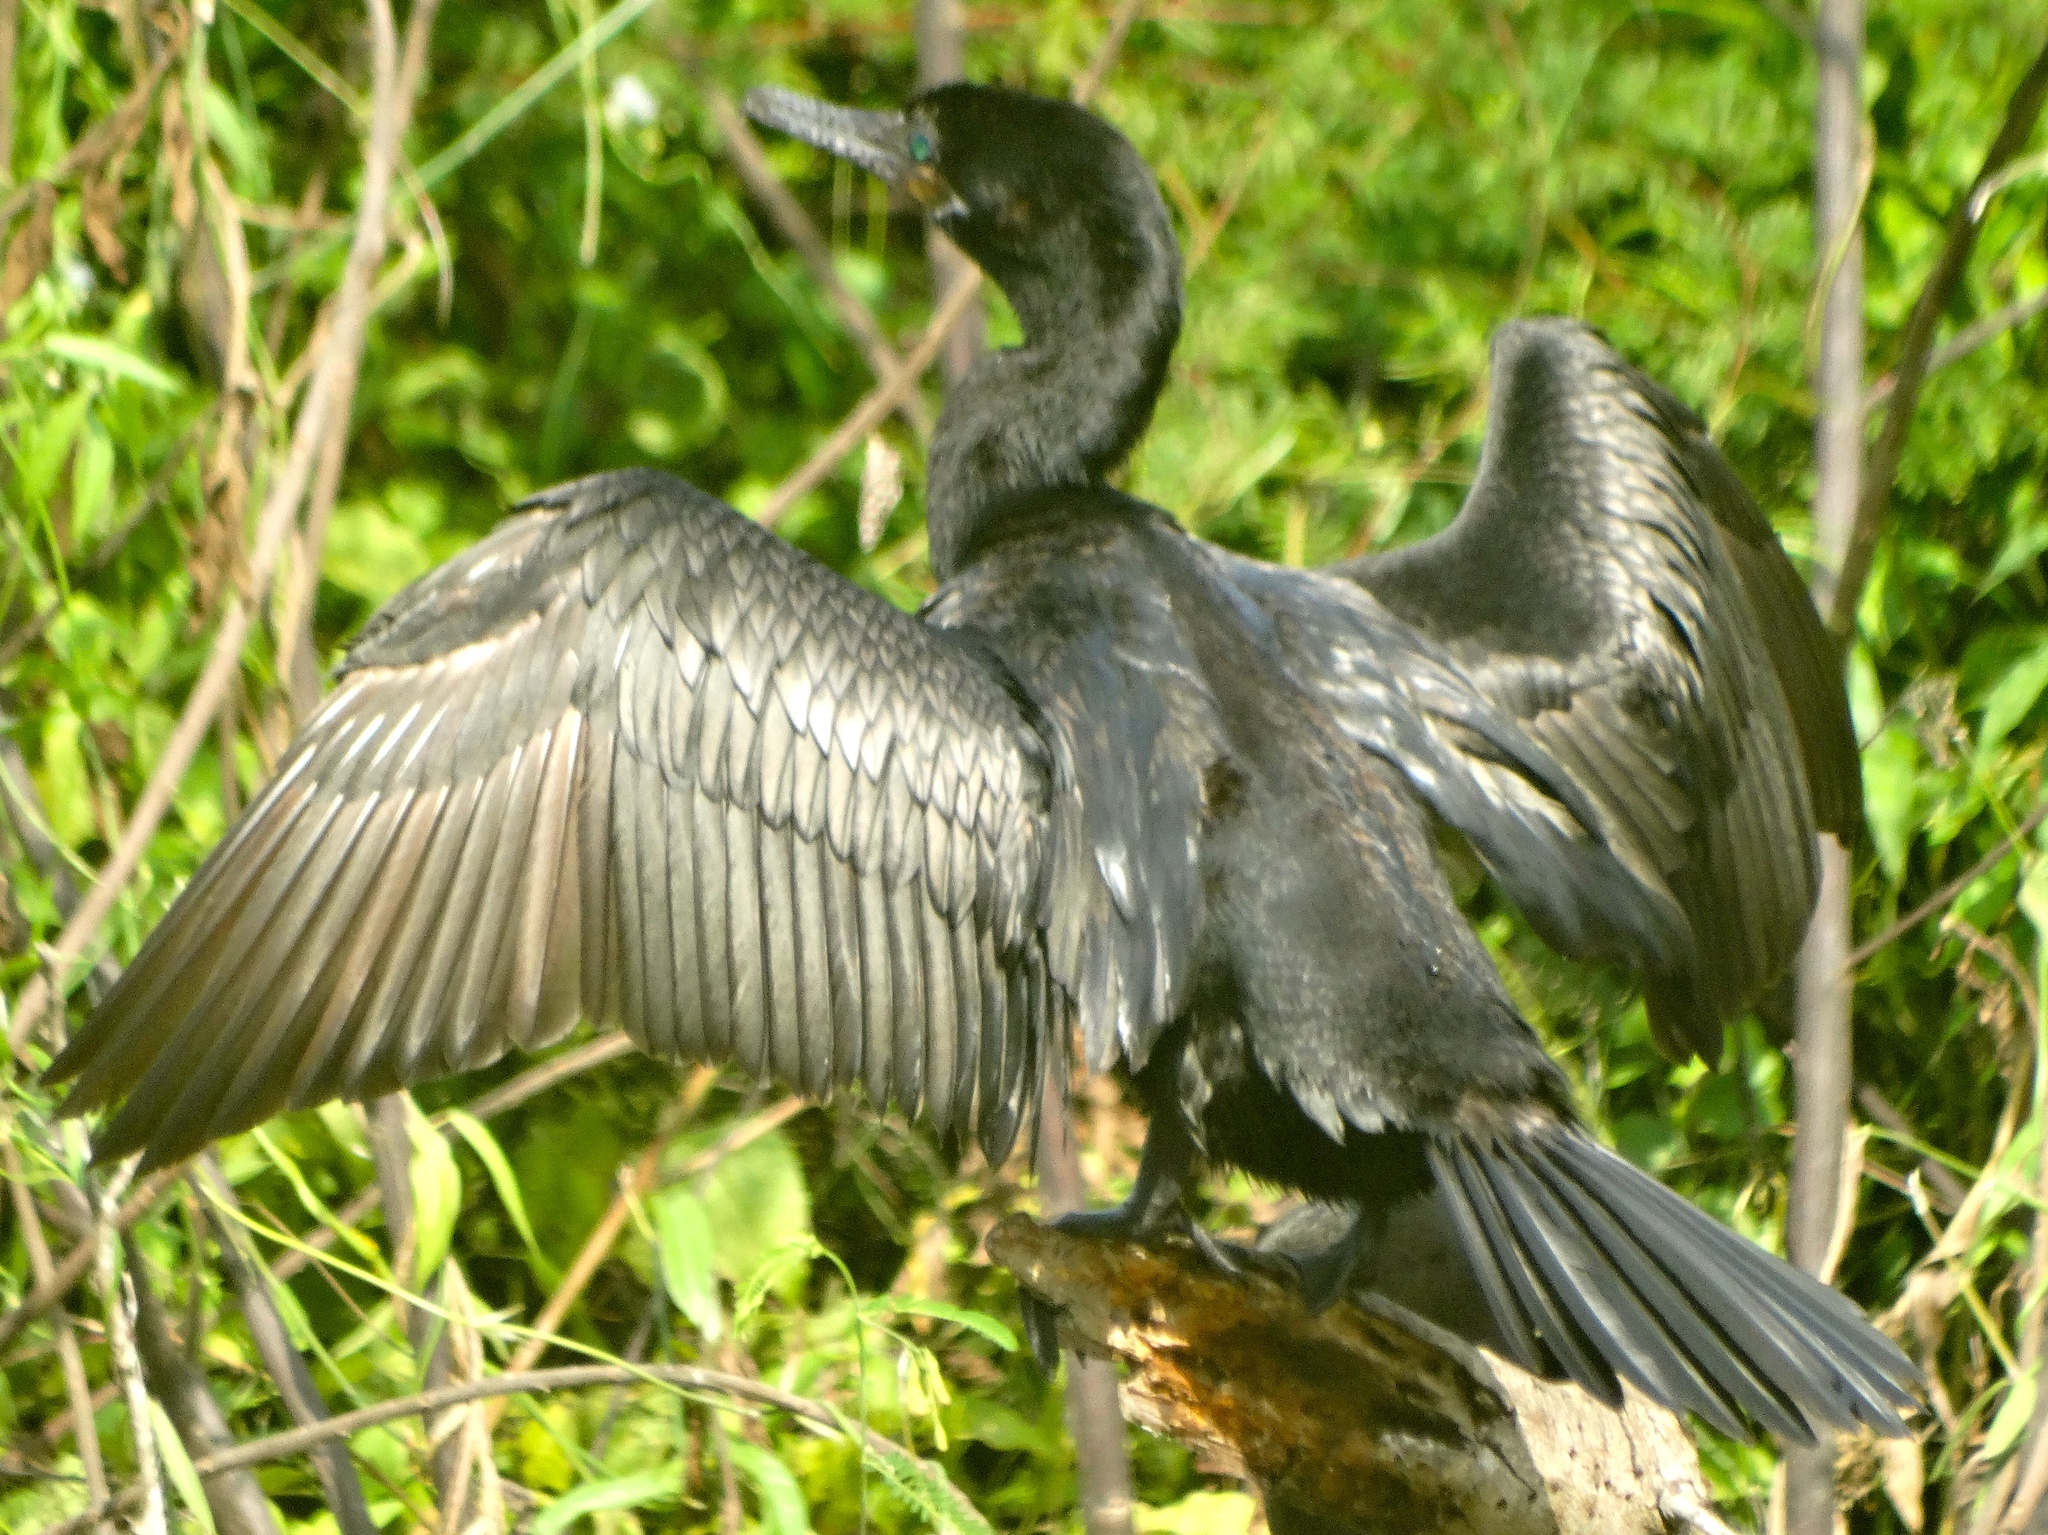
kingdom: Animalia
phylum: Chordata
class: Aves
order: Suliformes
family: Phalacrocoracidae
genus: Phalacrocorax
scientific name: Phalacrocorax brasilianus
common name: Neotropic cormorant
